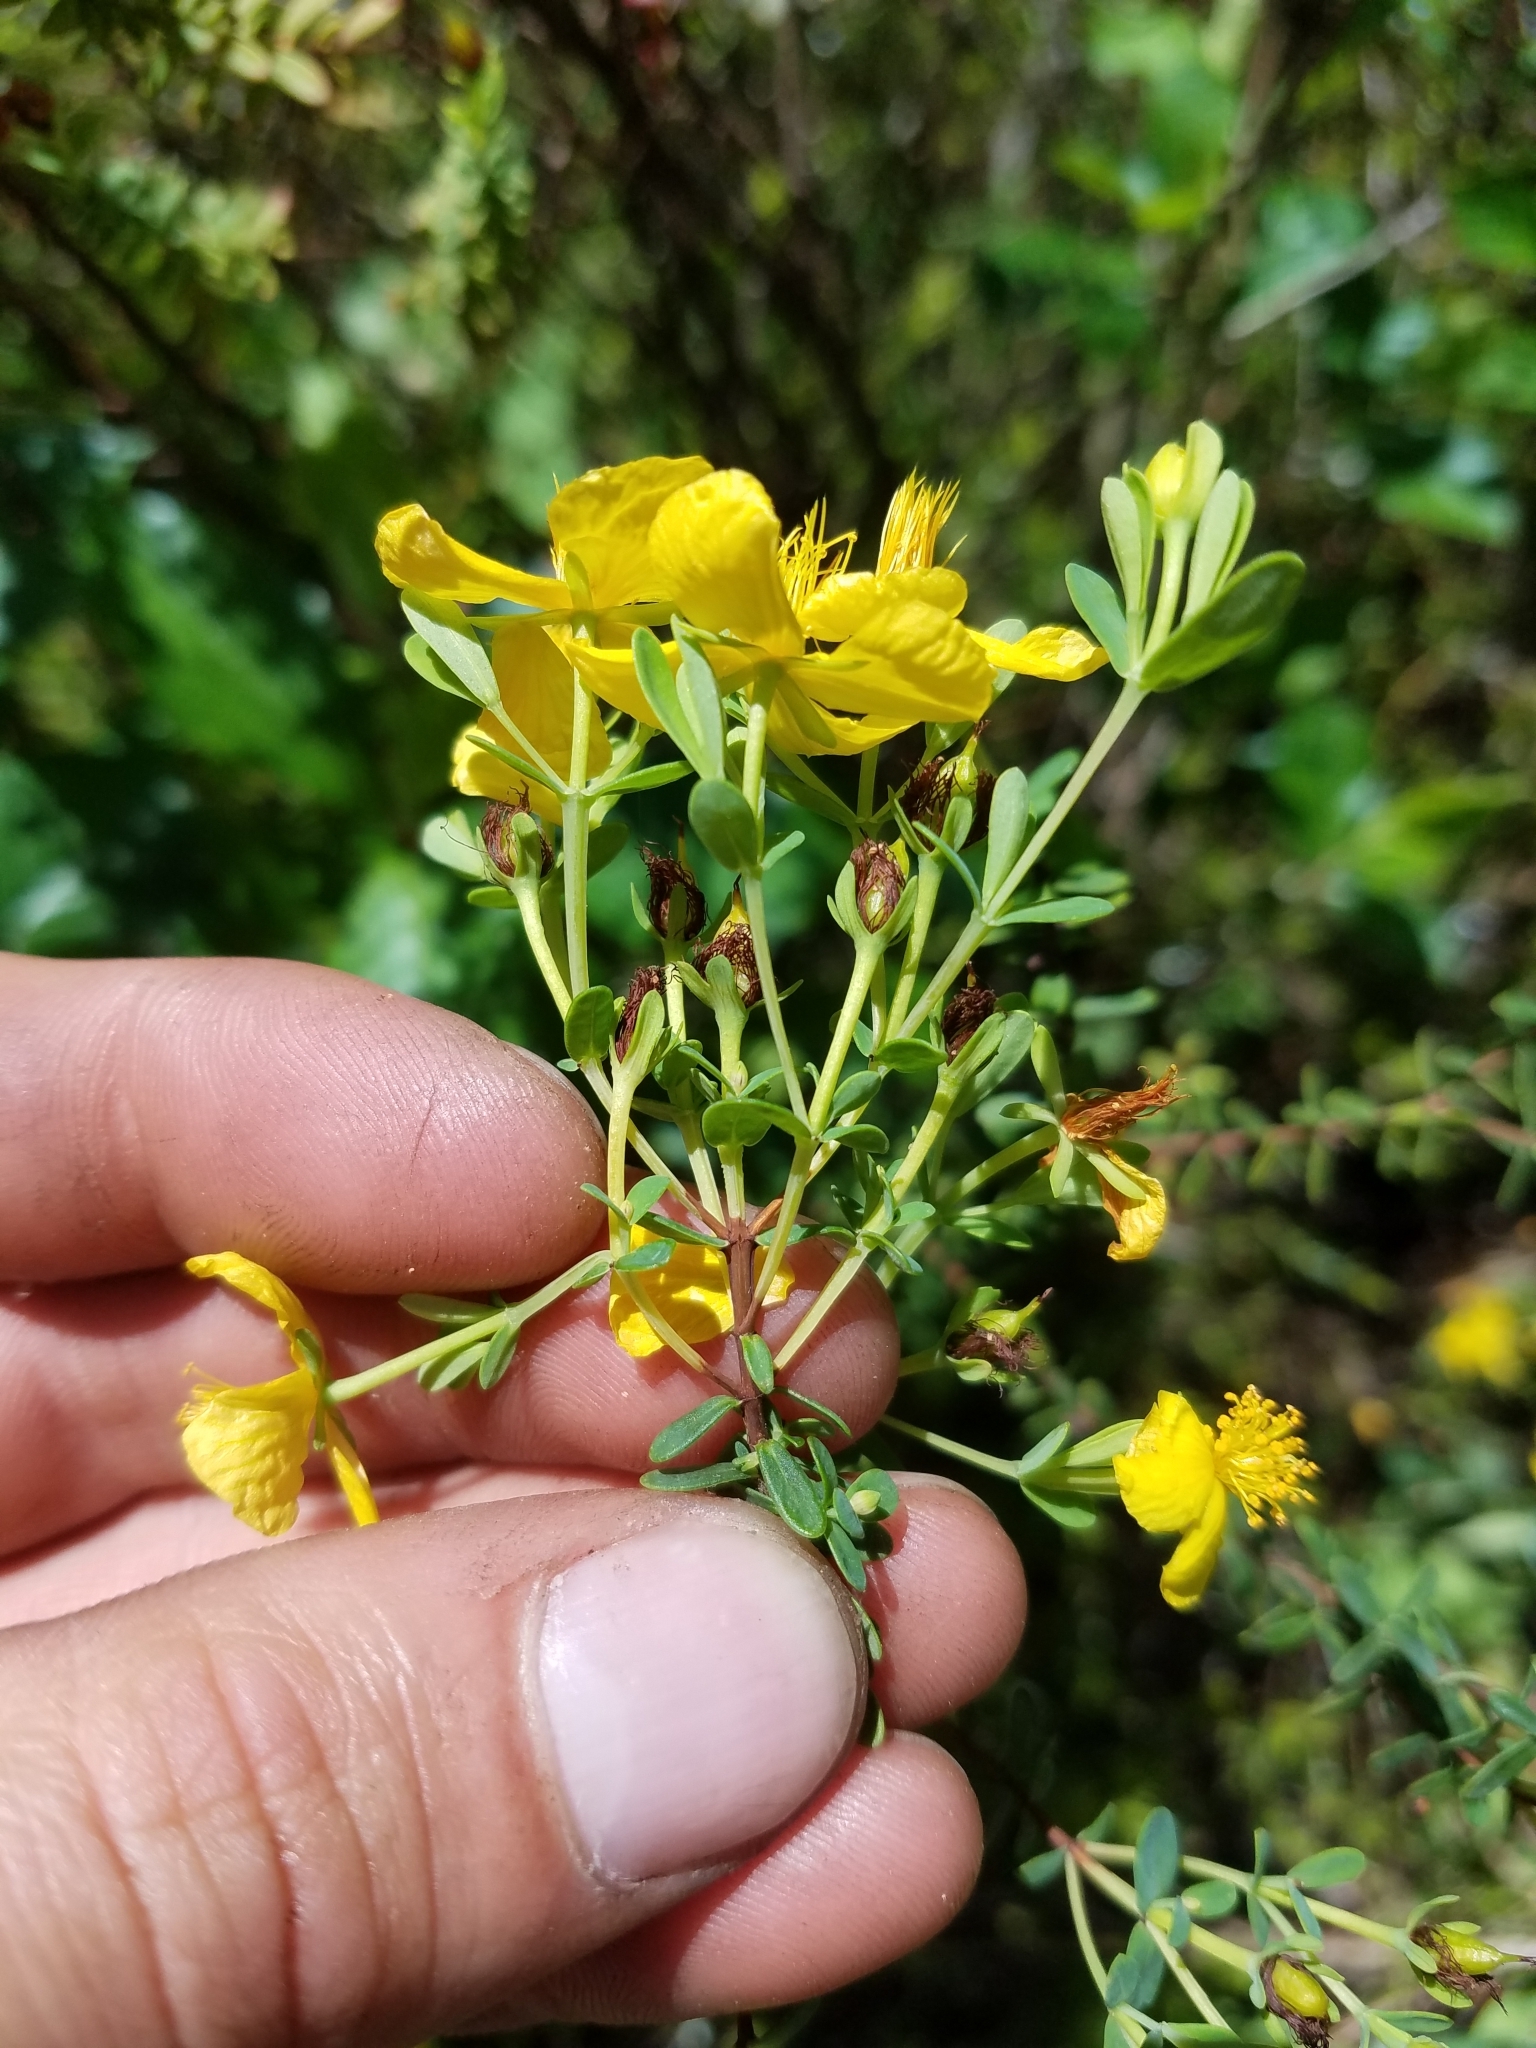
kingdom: Plantae
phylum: Tracheophyta
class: Magnoliopsida
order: Malpighiales
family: Hypericaceae
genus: Hypericum
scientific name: Hypericum microsepalum
